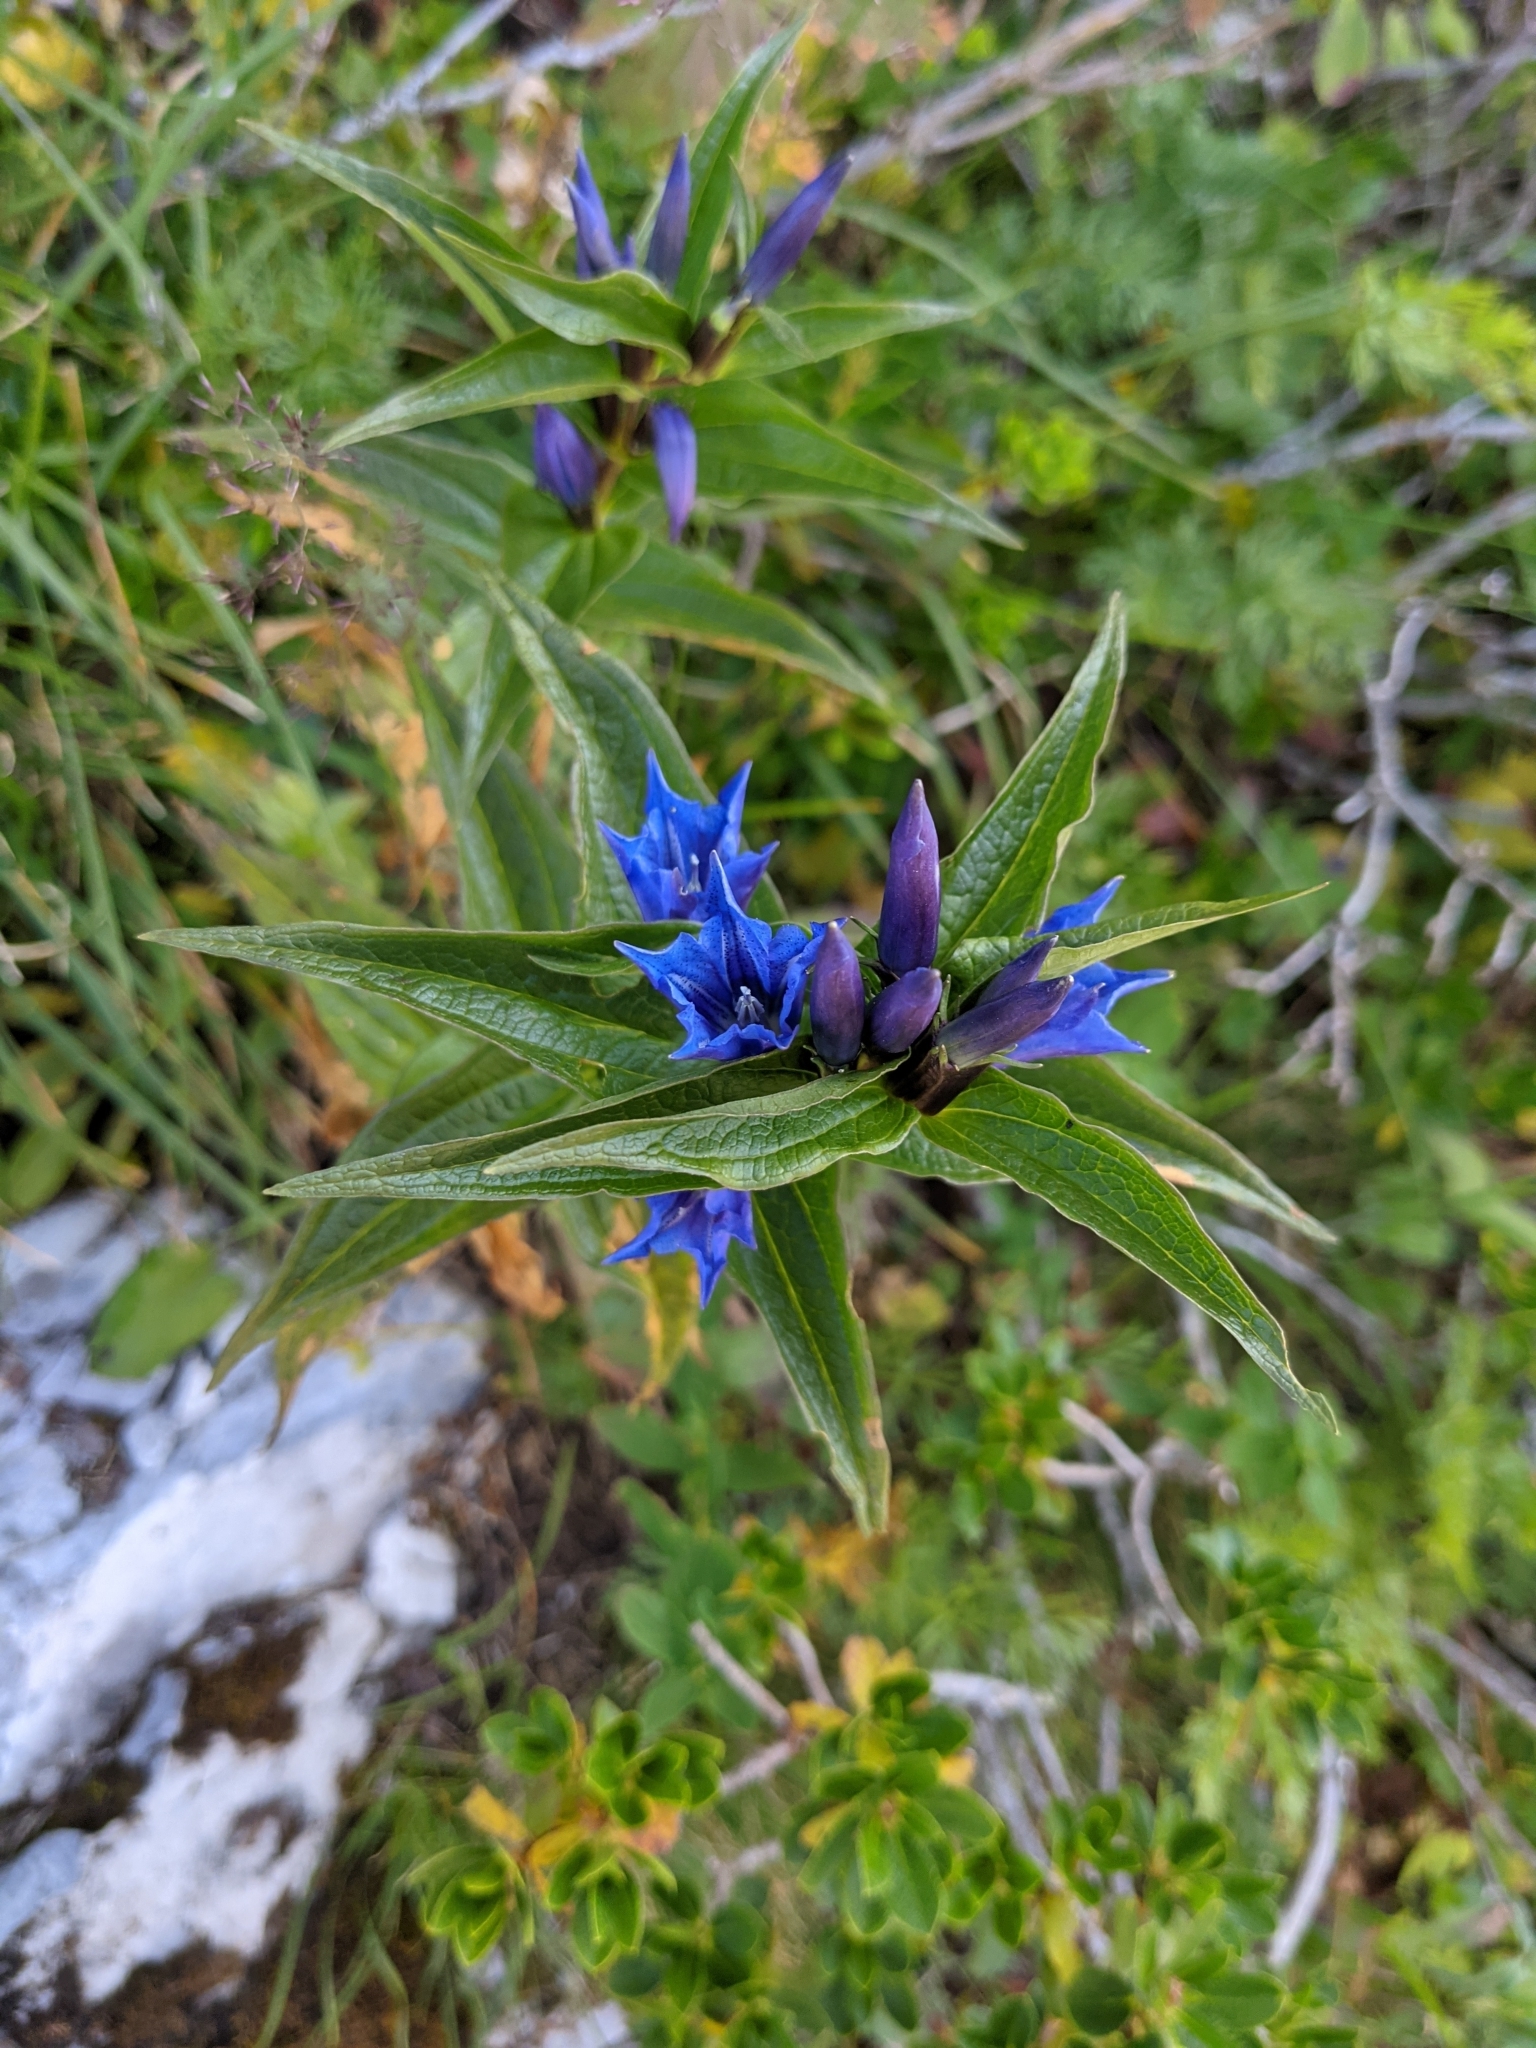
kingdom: Plantae
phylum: Tracheophyta
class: Magnoliopsida
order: Gentianales
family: Gentianaceae
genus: Gentiana
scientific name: Gentiana asclepiadea
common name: Willow gentian
